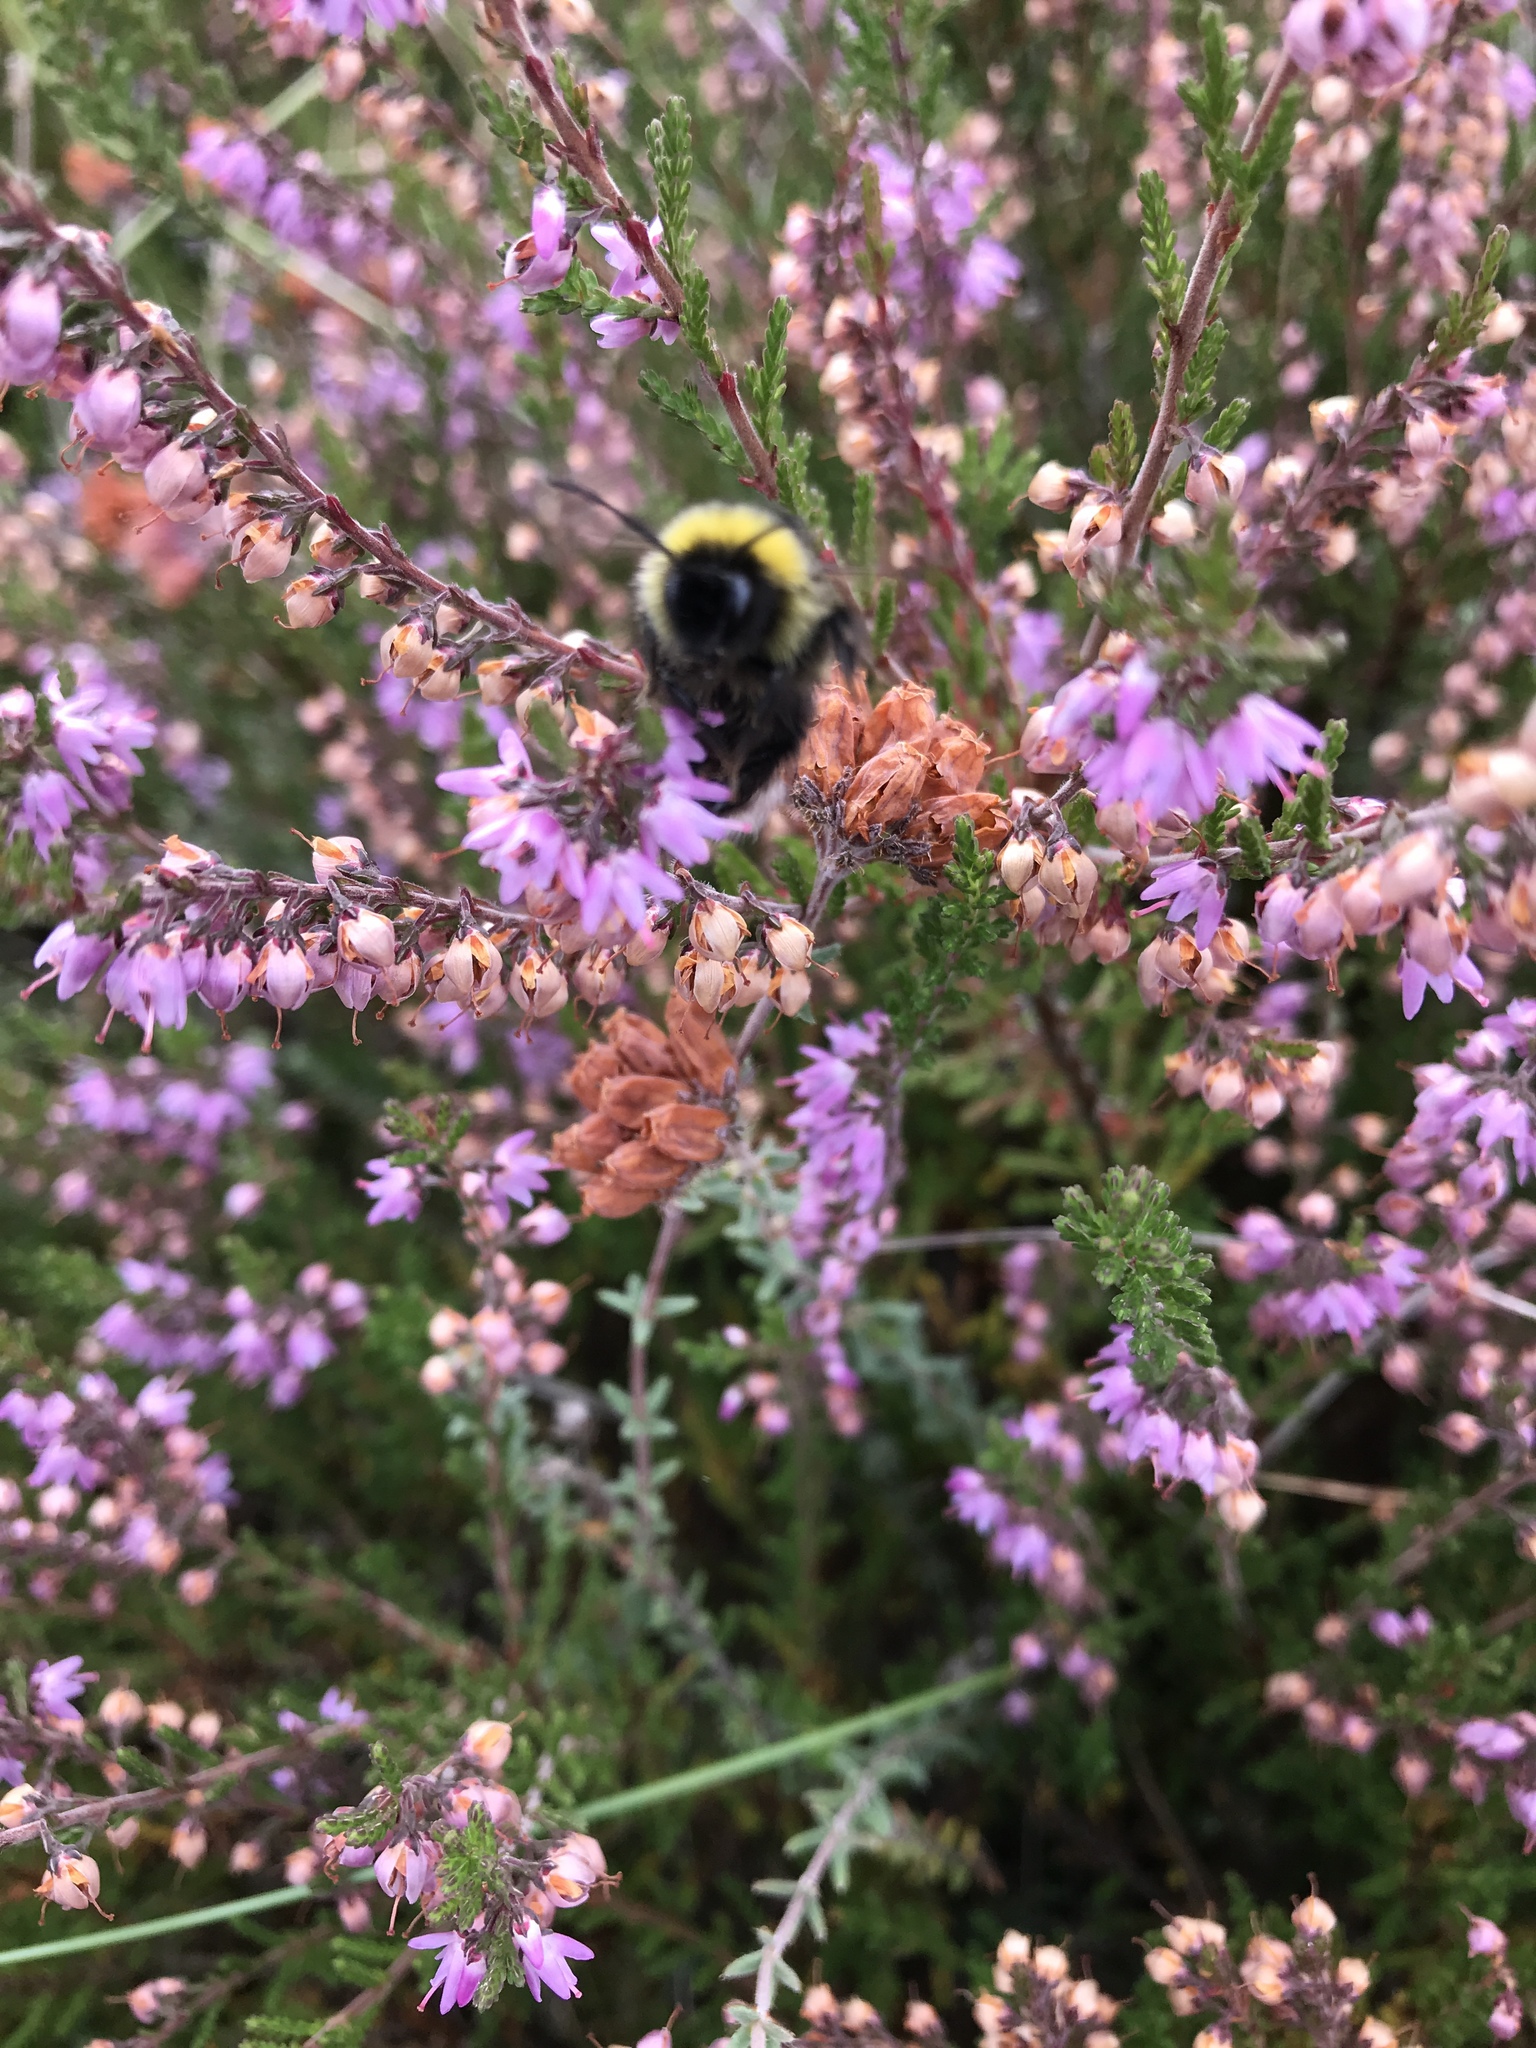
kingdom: Animalia
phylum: Arthropoda
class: Insecta
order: Hymenoptera
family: Apidae
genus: Bombus
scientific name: Bombus
